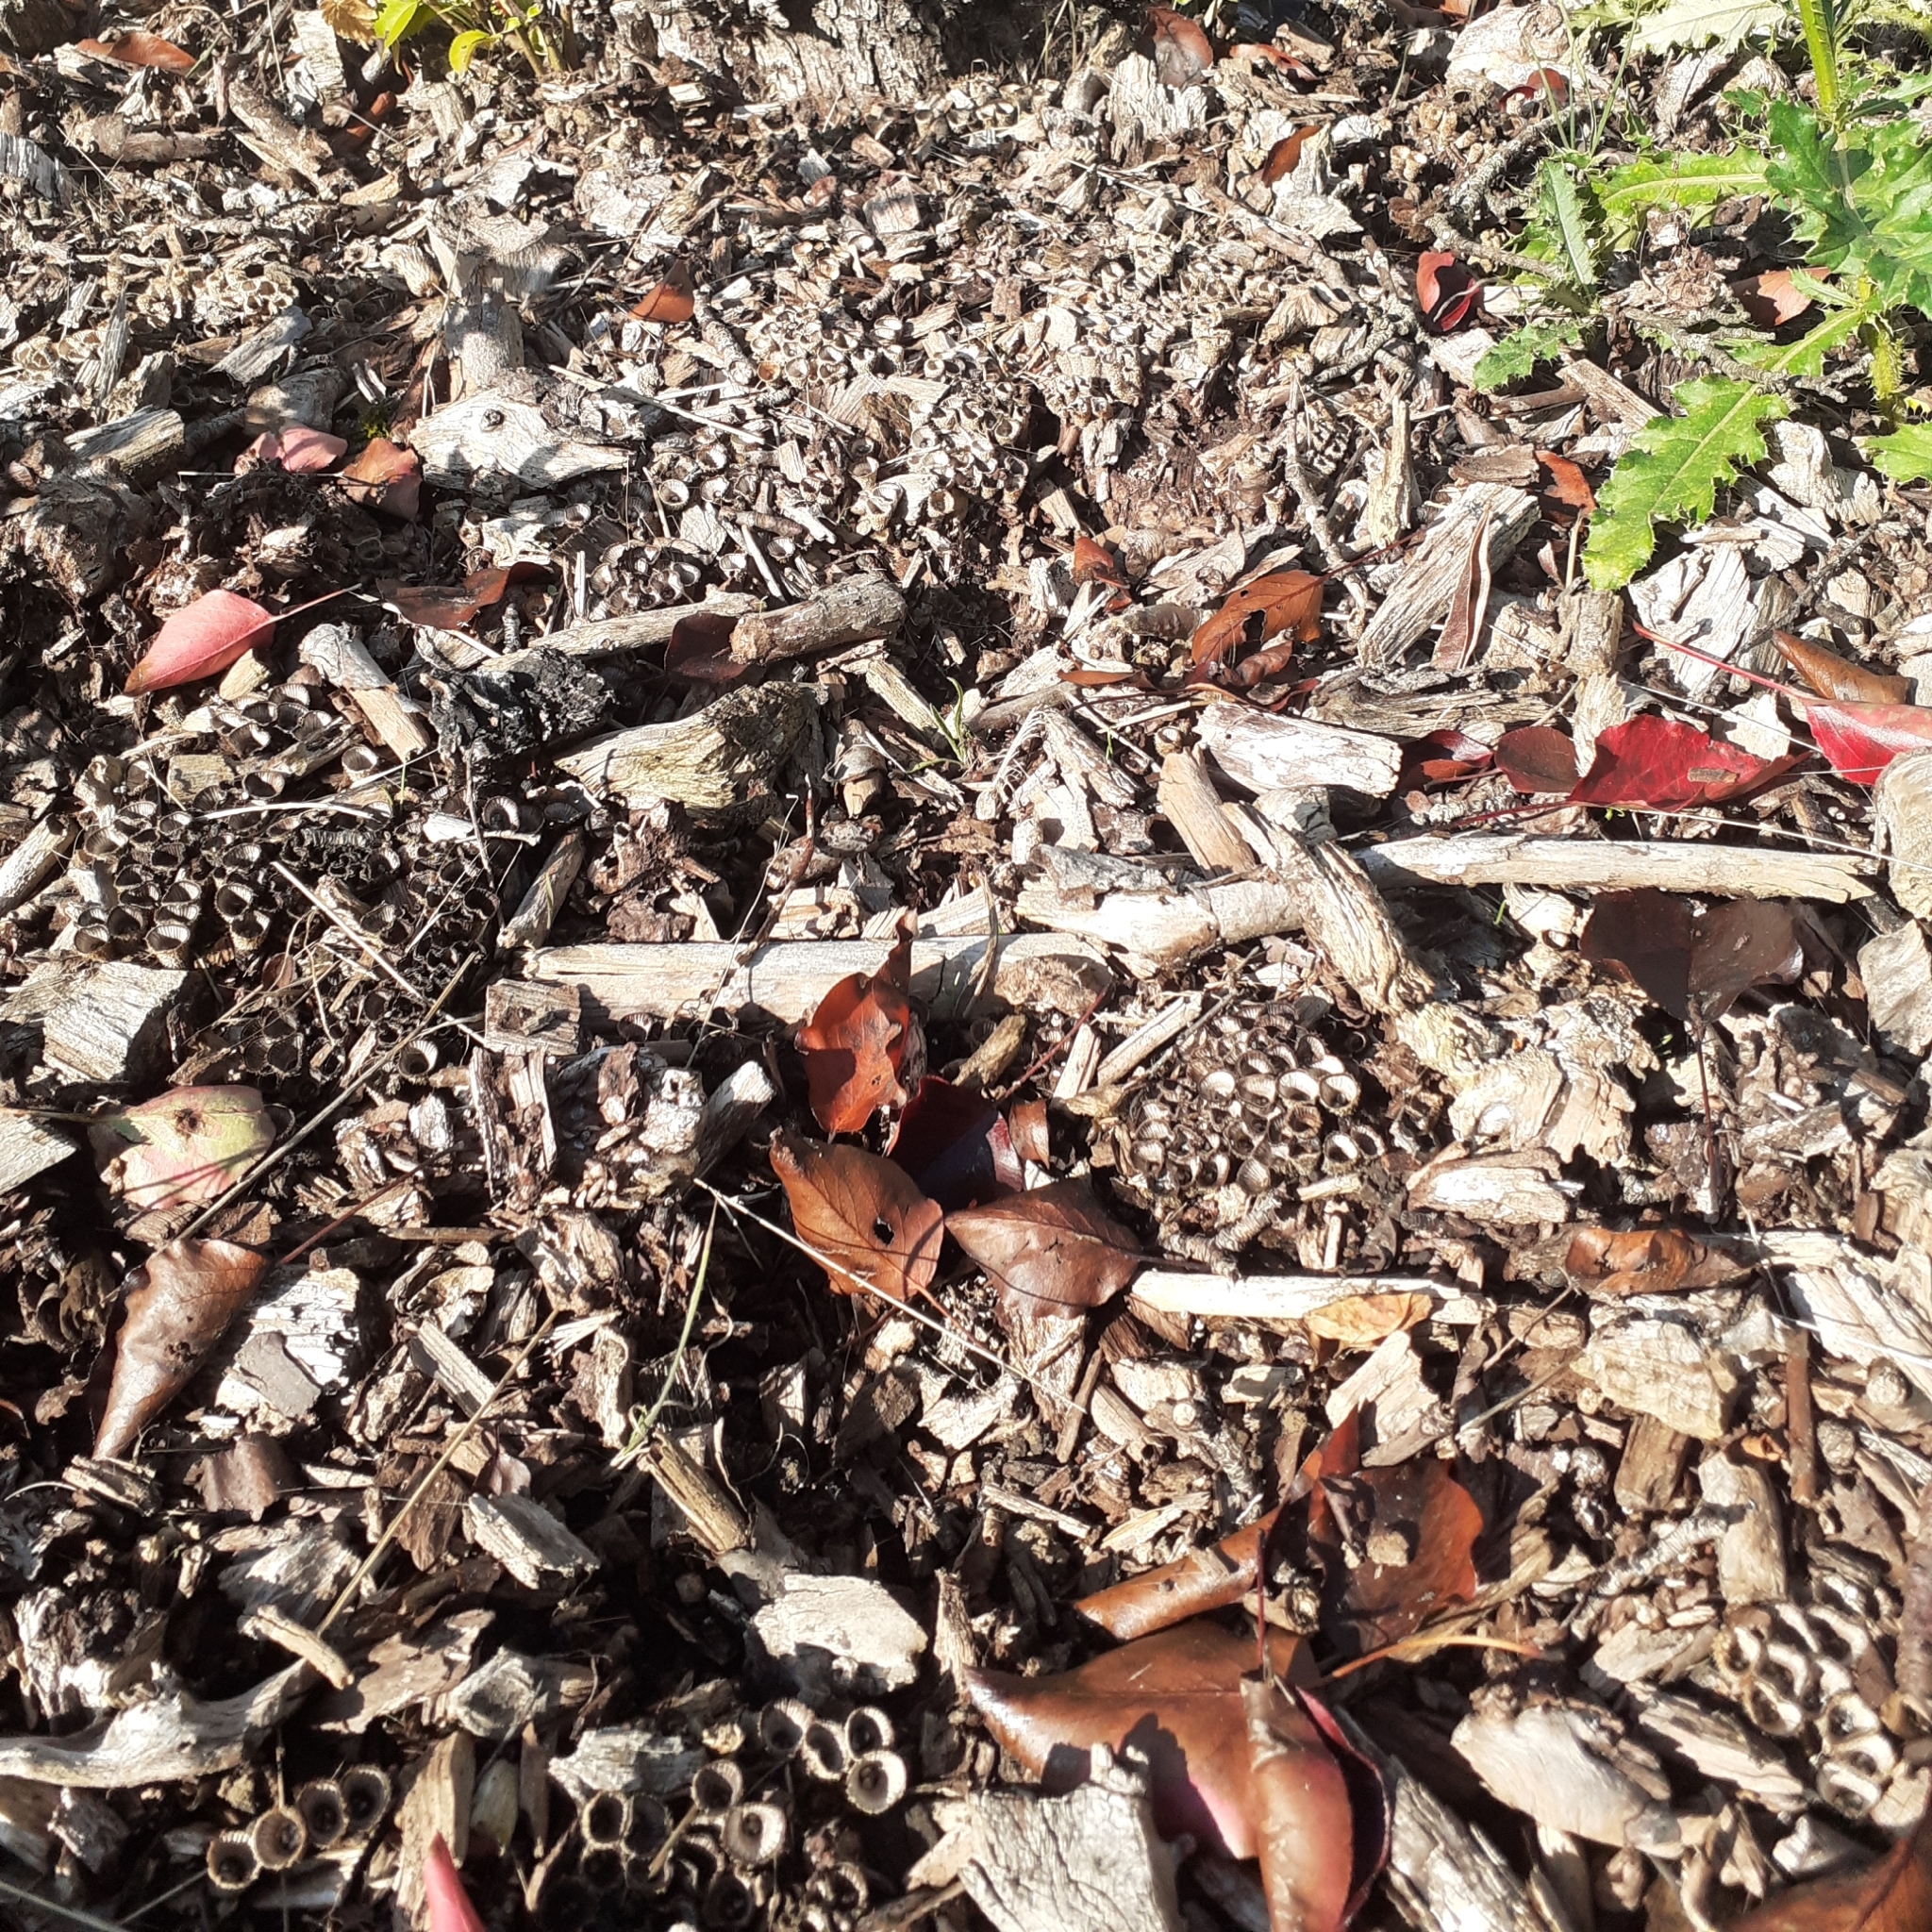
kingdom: Fungi
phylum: Basidiomycota
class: Agaricomycetes
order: Agaricales
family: Agaricaceae
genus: Cyathus
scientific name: Cyathus striatus
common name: Fluted bird's nest
